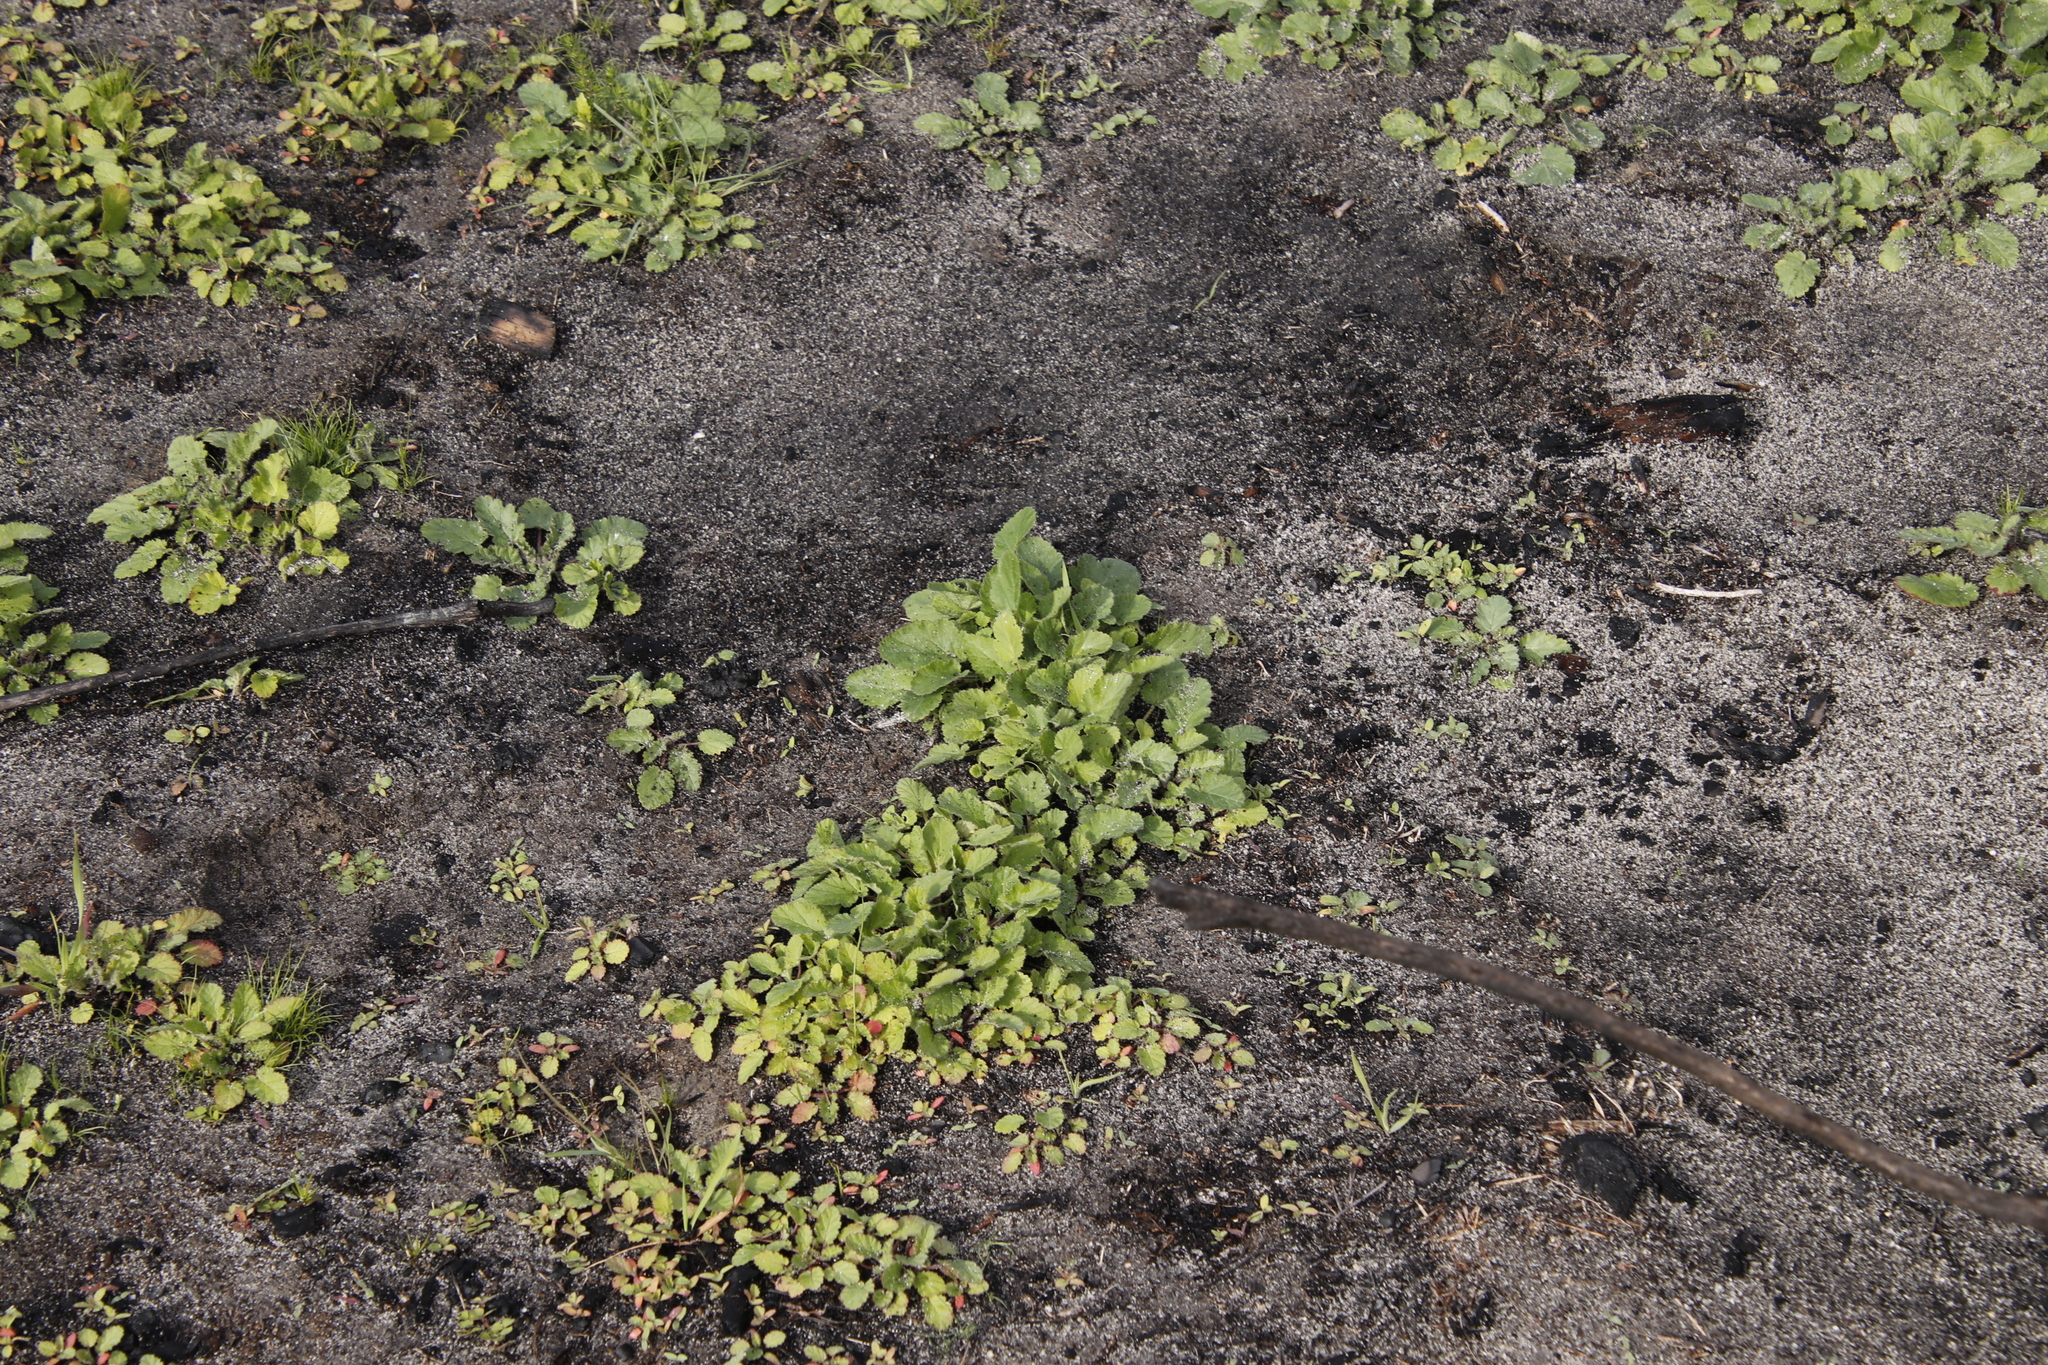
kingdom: Plantae
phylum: Tracheophyta
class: Magnoliopsida
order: Geraniales
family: Geraniaceae
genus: Pelargonium
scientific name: Pelargonium althaeoides
